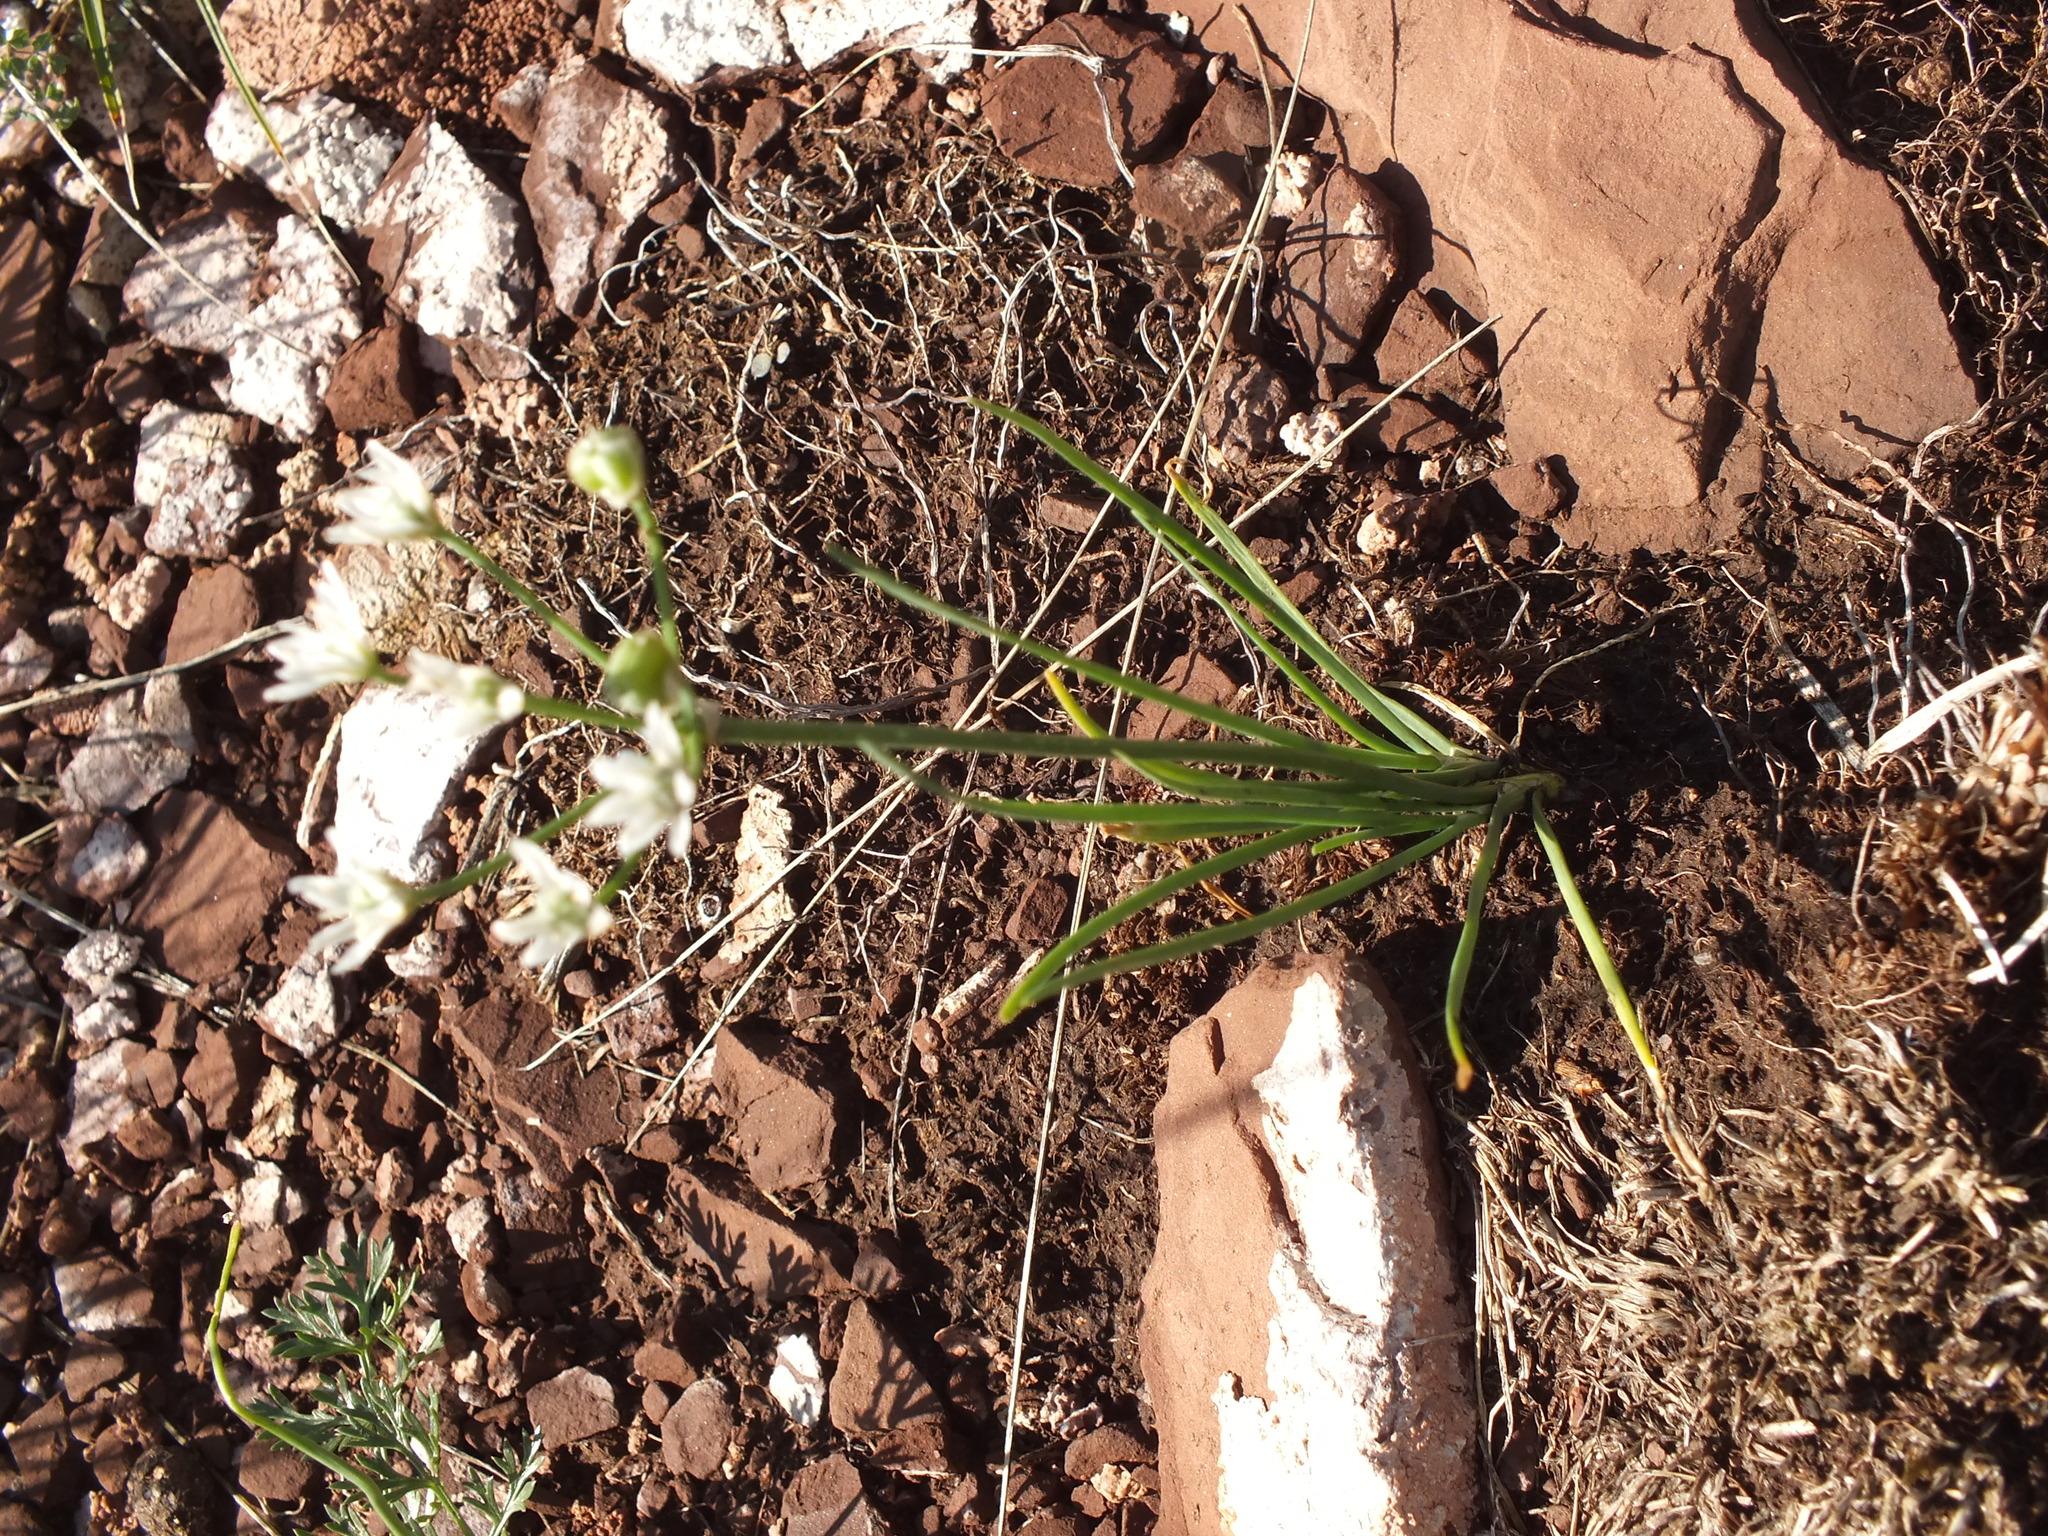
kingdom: Plantae
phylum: Tracheophyta
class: Liliopsida
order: Asparagales
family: Amaryllidaceae
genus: Allium
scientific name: Allium ramosum
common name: Fragrant garlic
